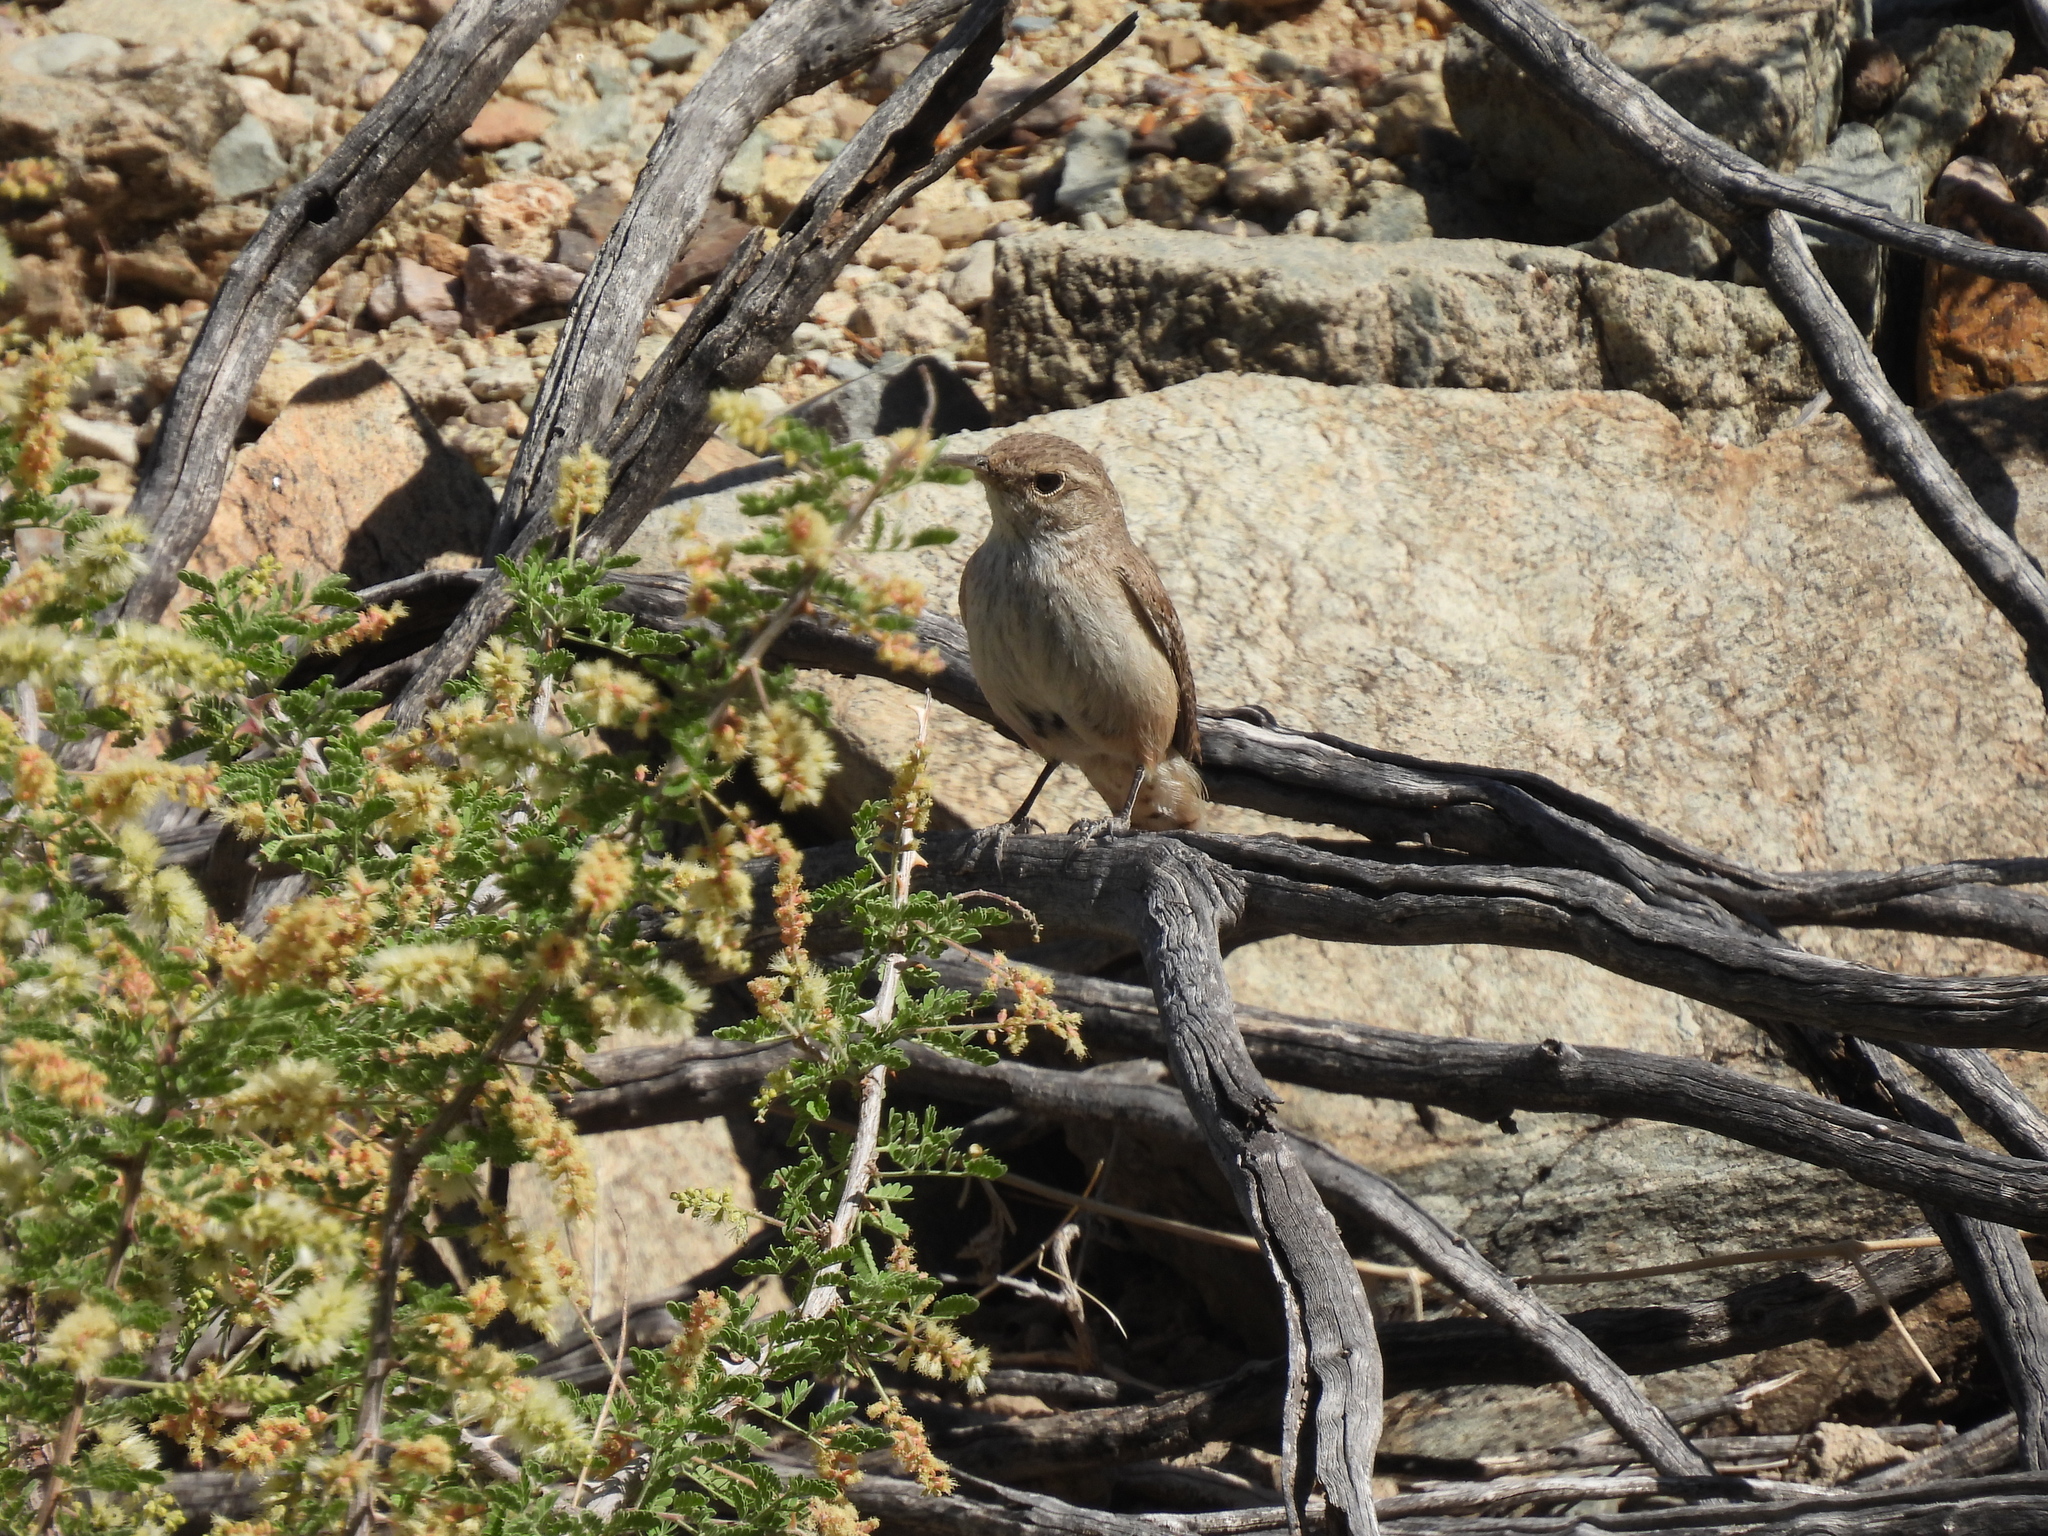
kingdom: Animalia
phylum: Chordata
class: Aves
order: Passeriformes
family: Troglodytidae
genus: Salpinctes
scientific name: Salpinctes obsoletus
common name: Rock wren
